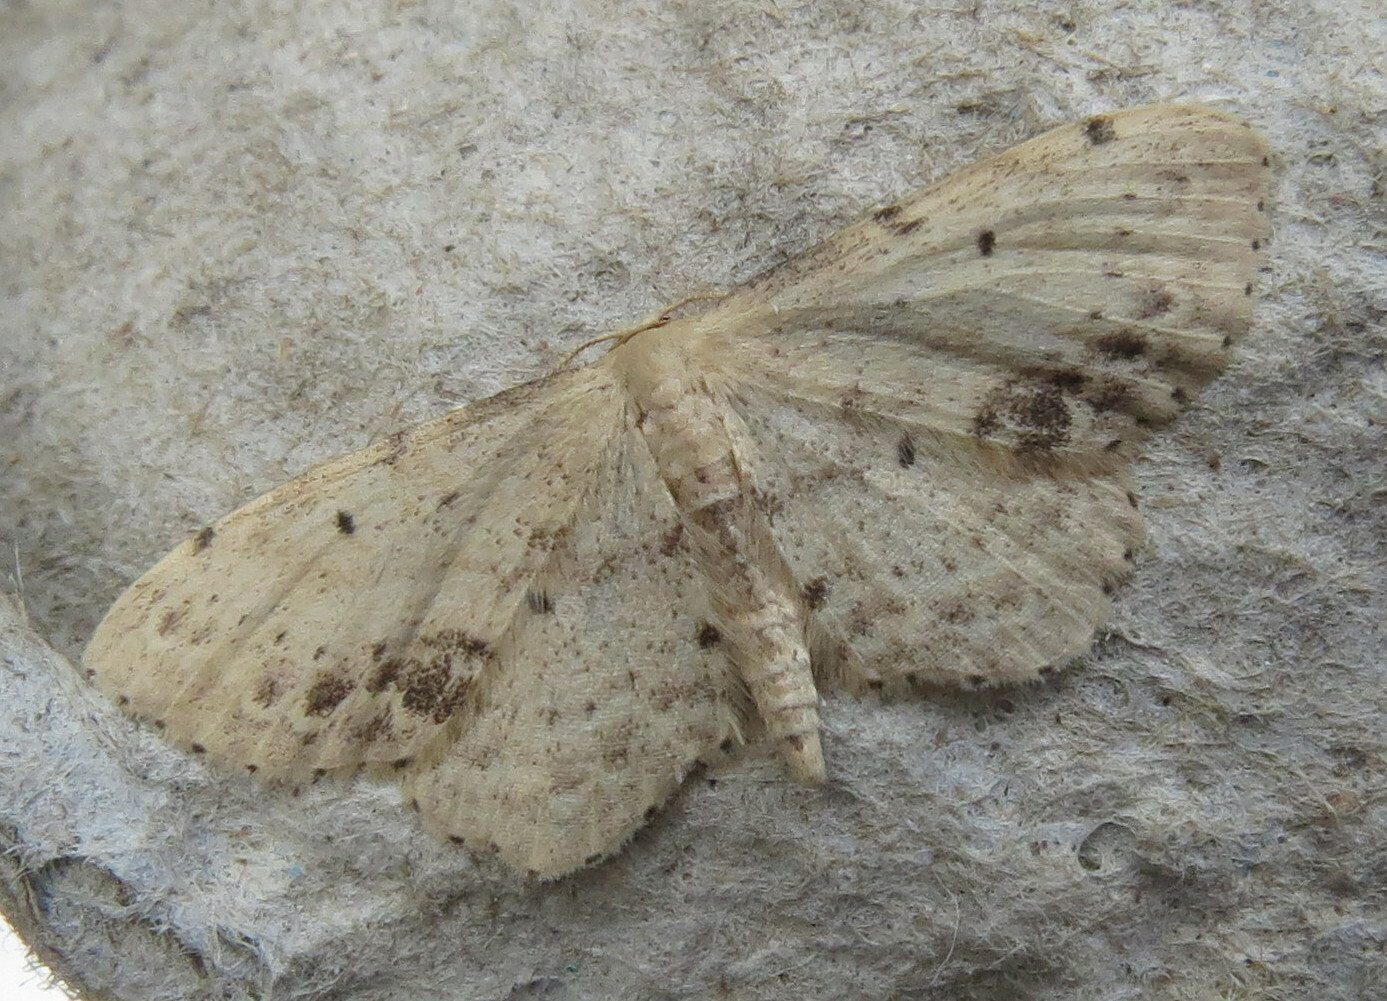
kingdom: Animalia
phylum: Arthropoda
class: Insecta
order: Lepidoptera
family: Geometridae
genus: Idaea
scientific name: Idaea dimidiata
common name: Single-dotted wave
